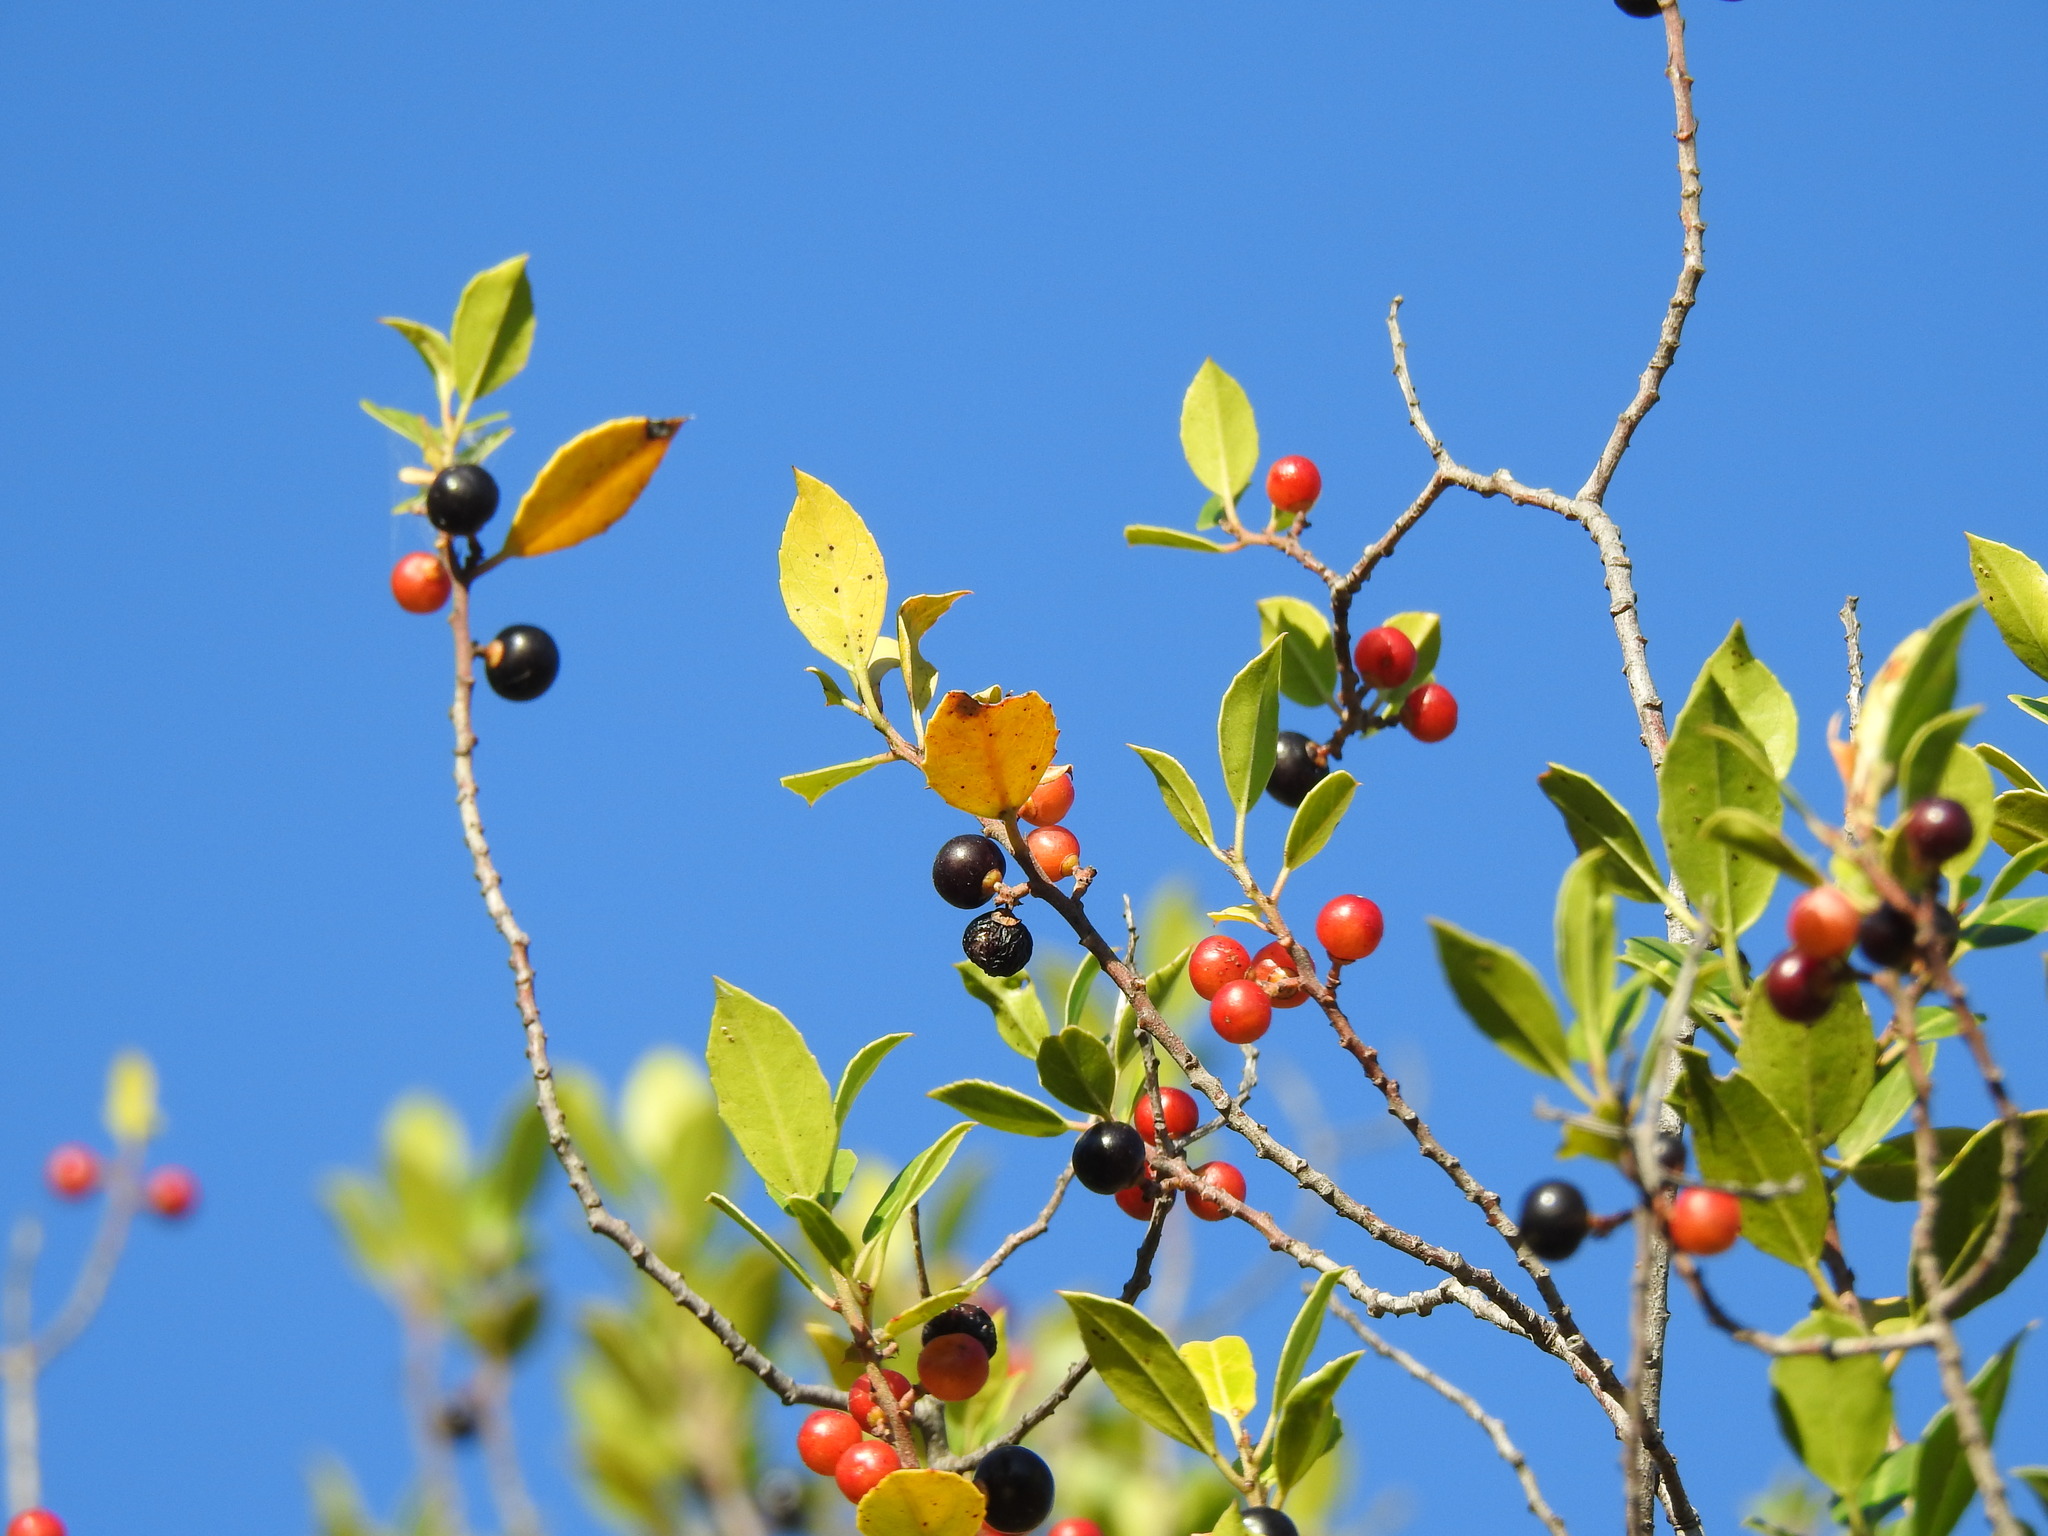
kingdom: Plantae
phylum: Tracheophyta
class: Magnoliopsida
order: Rosales
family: Rhamnaceae
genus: Rhamnus
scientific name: Rhamnus alaternus
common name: Mediterranean buckthorn
